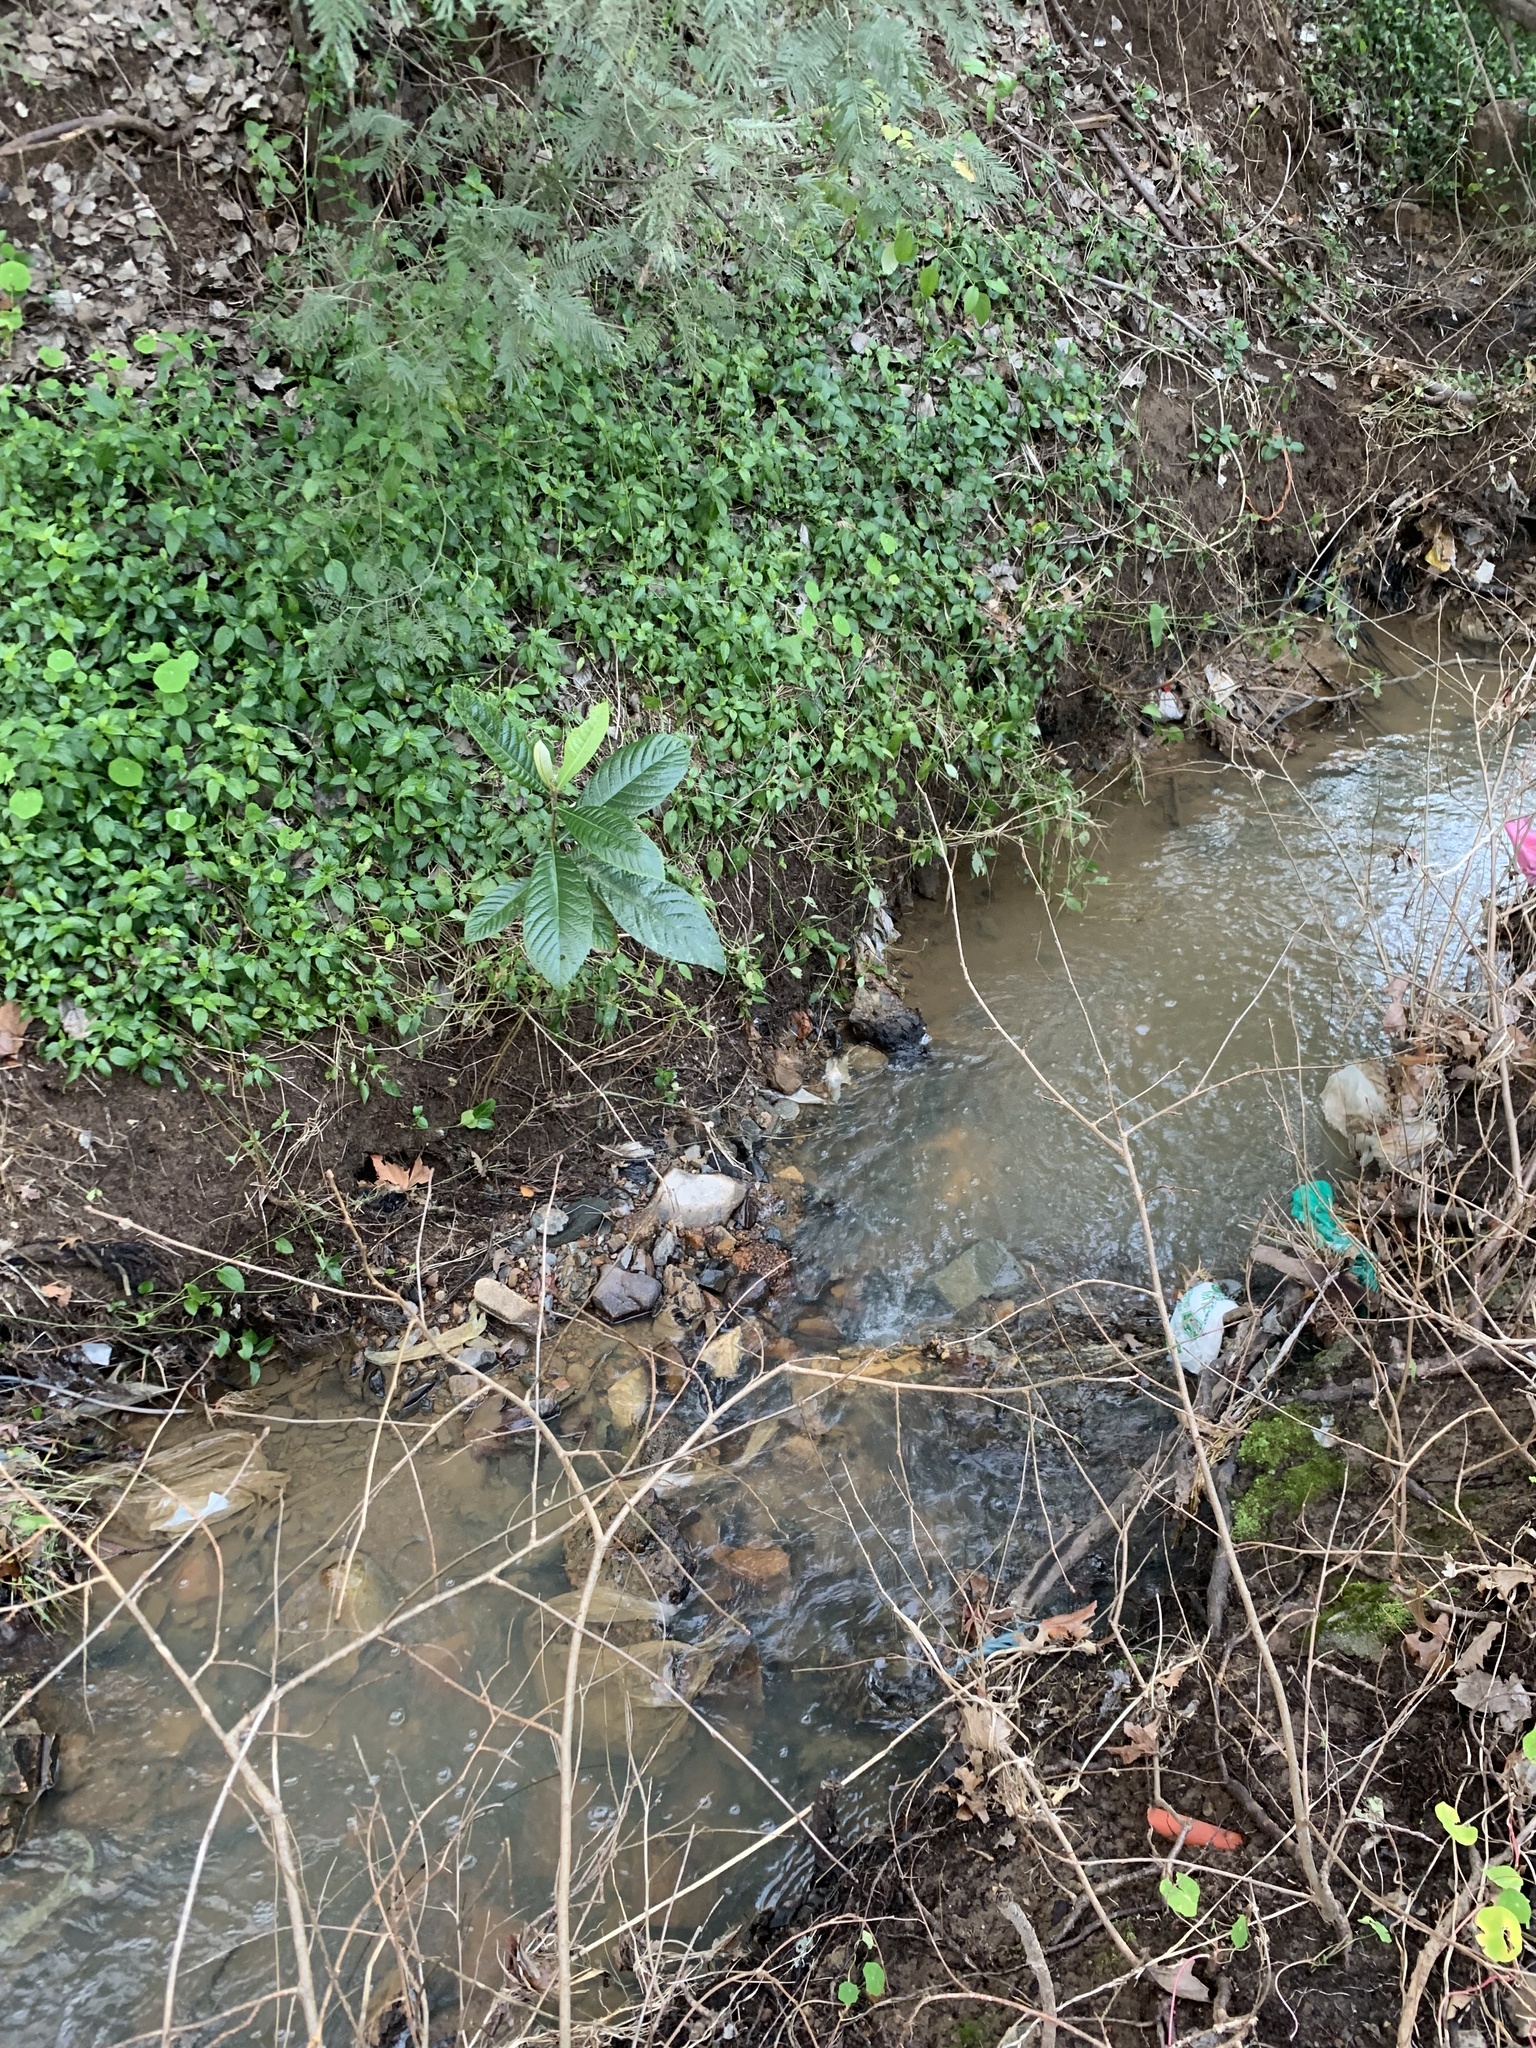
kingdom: Plantae
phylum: Tracheophyta
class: Magnoliopsida
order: Rosales
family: Rosaceae
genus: Rhaphiolepis
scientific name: Rhaphiolepis bibas
